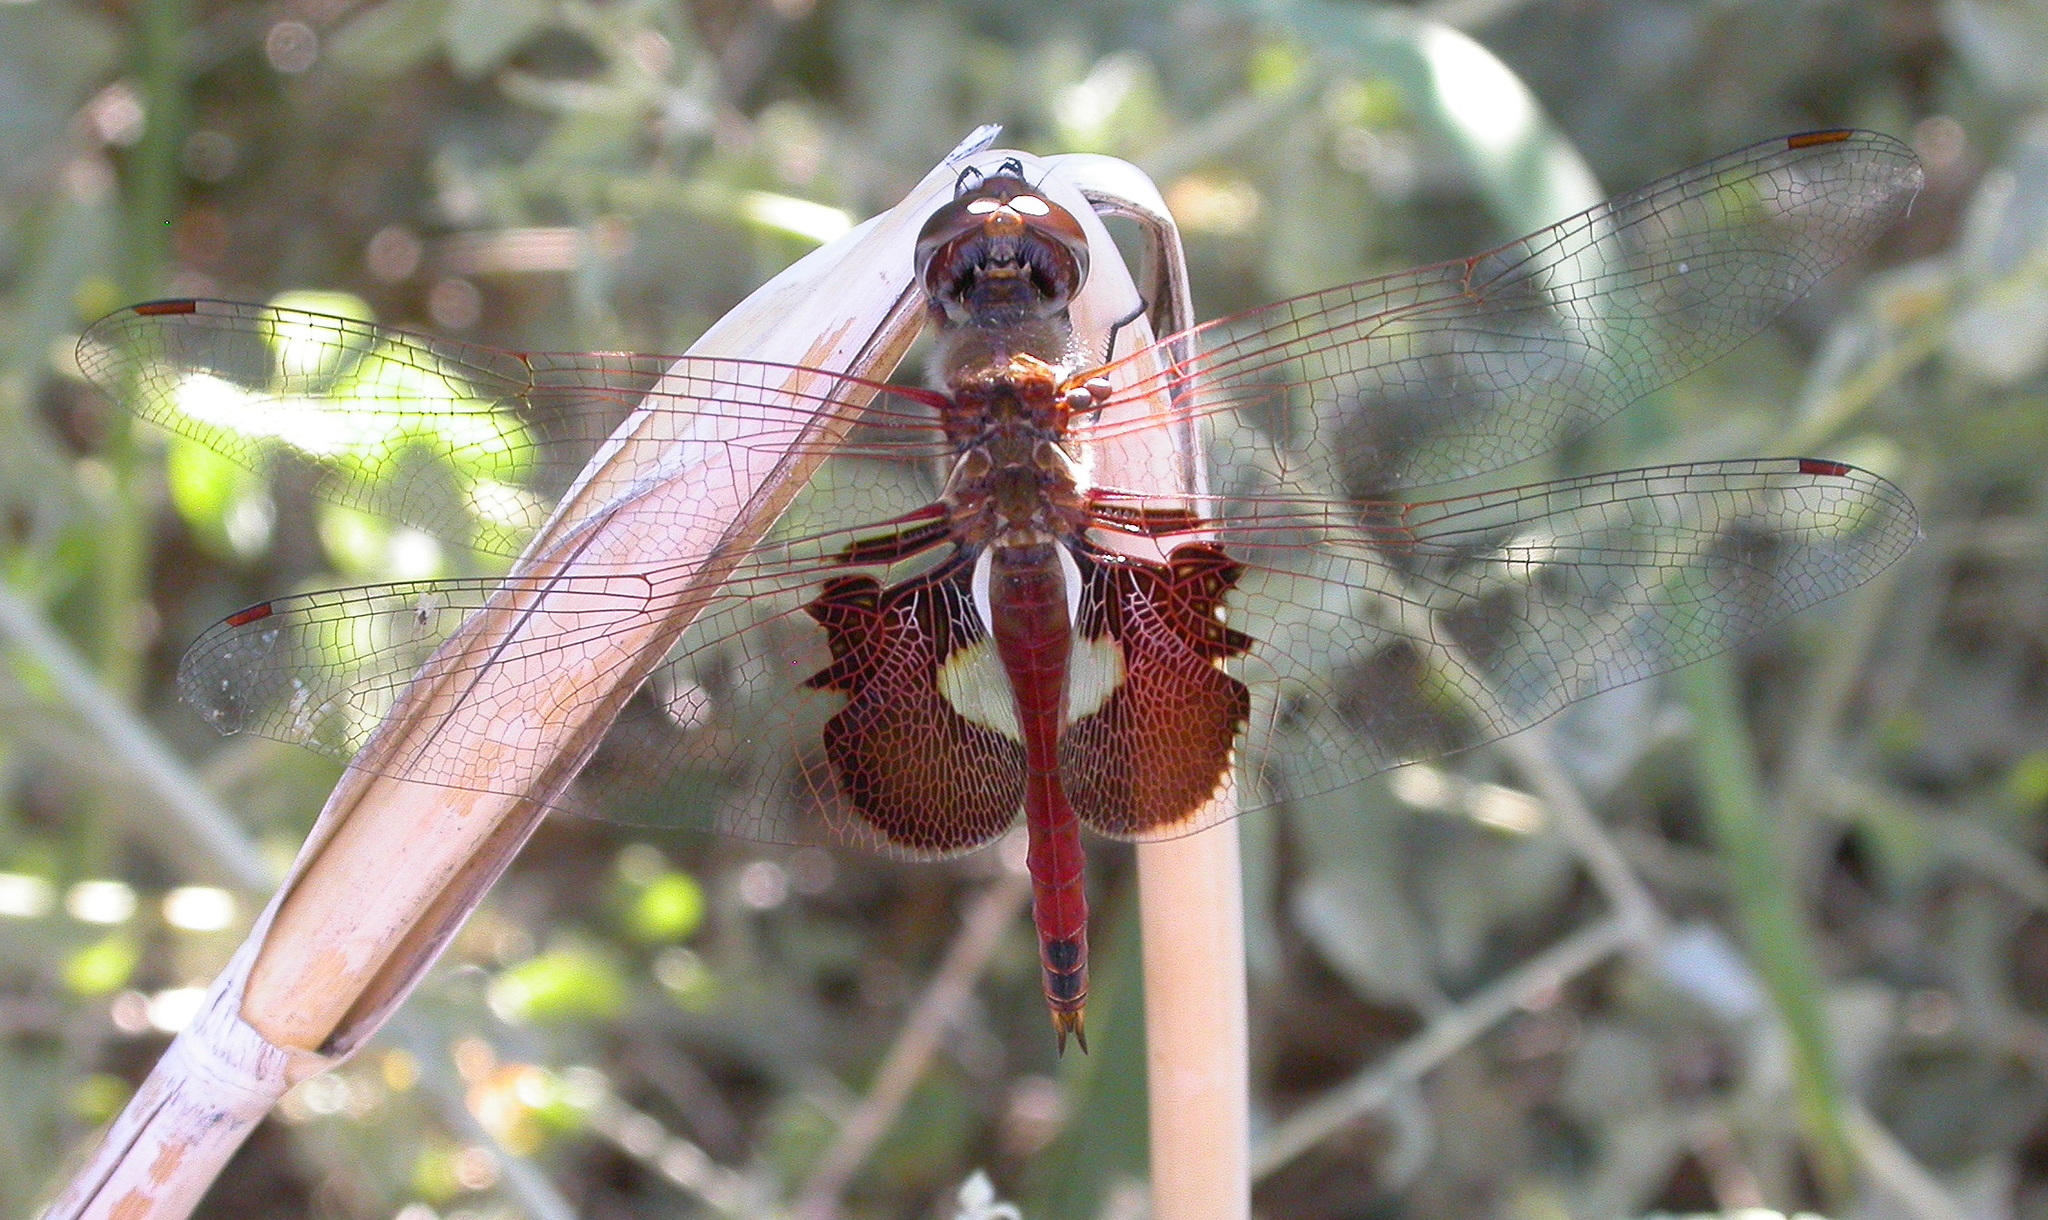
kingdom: Animalia
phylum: Arthropoda
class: Insecta
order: Odonata
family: Libellulidae
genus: Tramea
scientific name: Tramea onusta
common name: Red saddlebags
